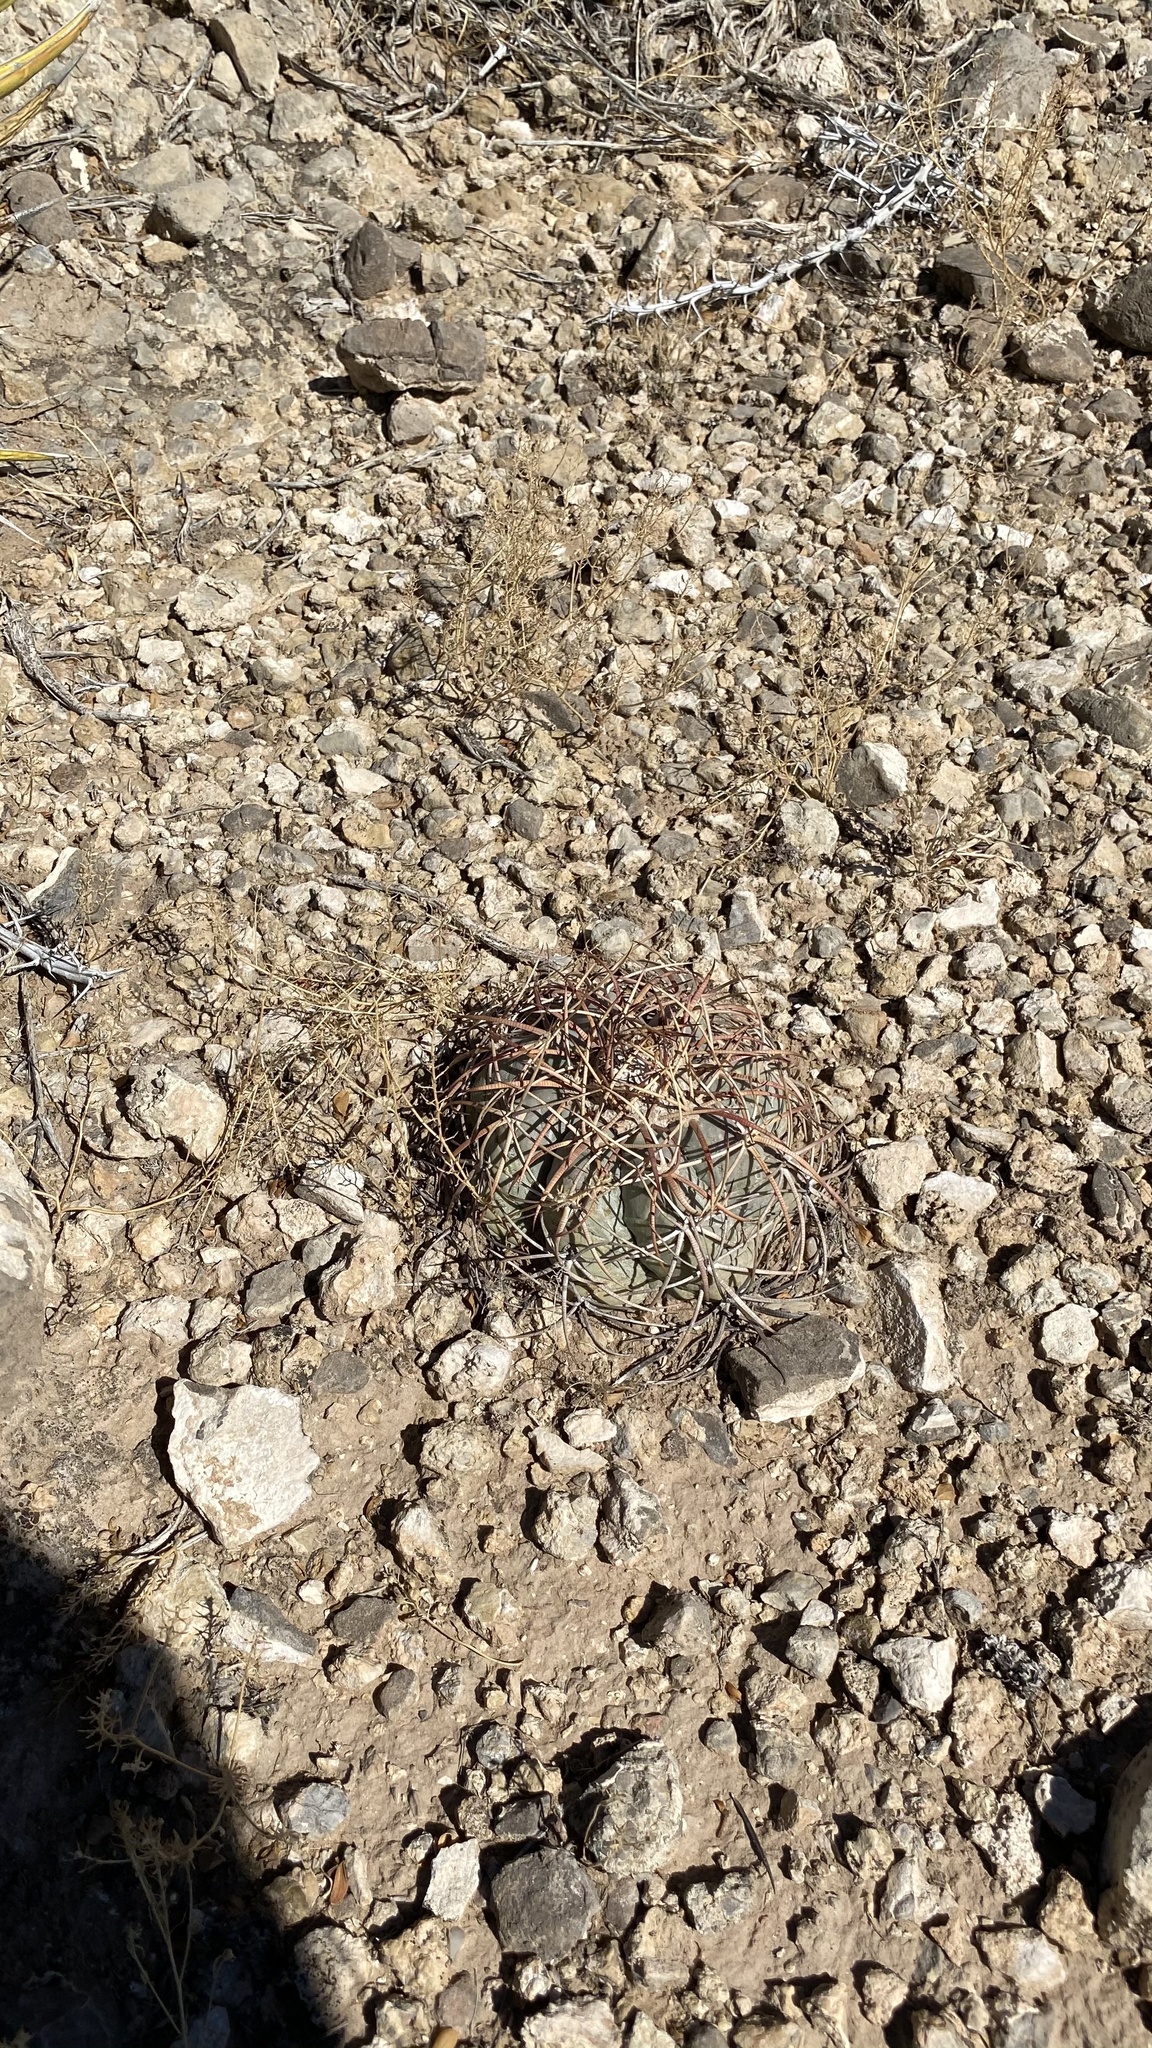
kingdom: Plantae
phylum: Tracheophyta
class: Magnoliopsida
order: Caryophyllales
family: Cactaceae
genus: Echinocactus
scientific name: Echinocactus horizonthalonius
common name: Devilshead
